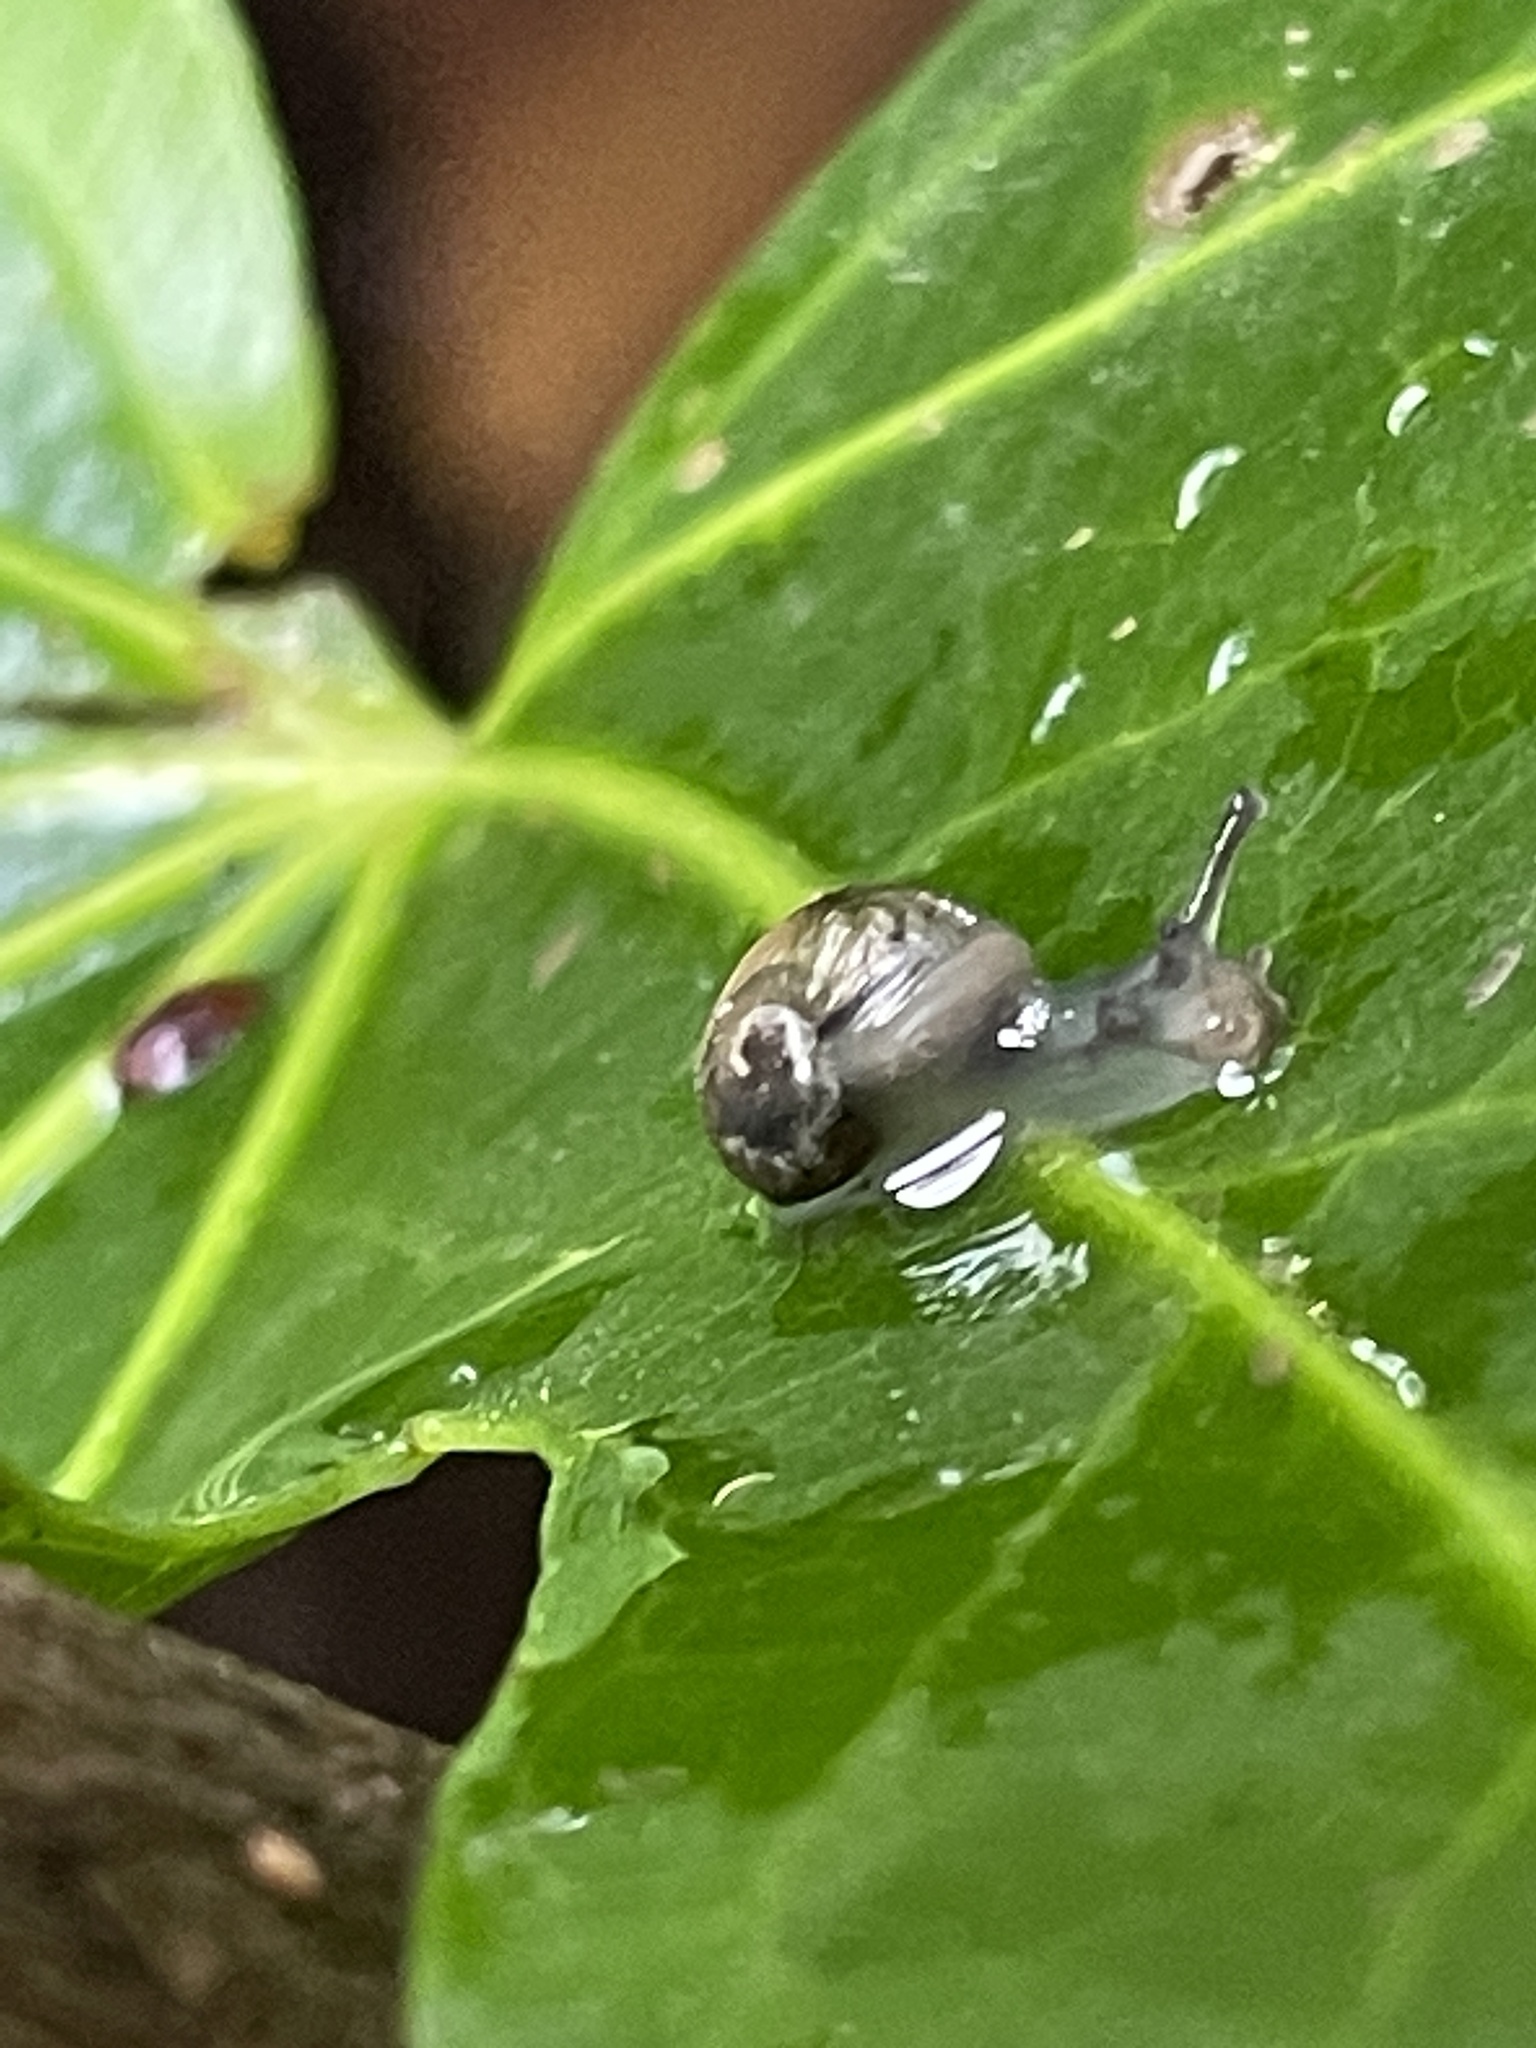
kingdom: Animalia
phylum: Mollusca
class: Gastropoda
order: Stylommatophora
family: Helicidae
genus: Cornu
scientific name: Cornu aspersum
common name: Brown garden snail
